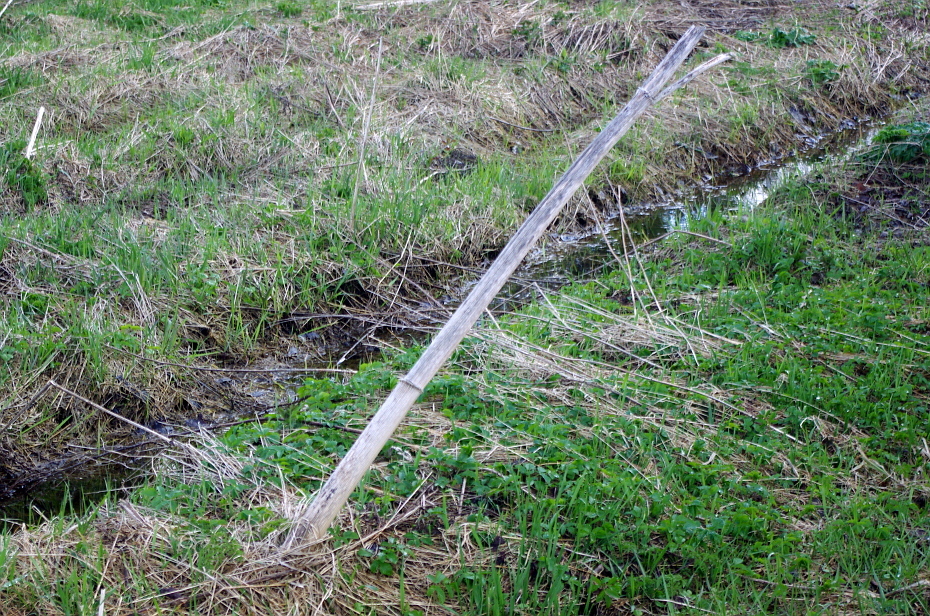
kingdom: Plantae
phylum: Tracheophyta
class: Magnoliopsida
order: Apiales
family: Apiaceae
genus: Heracleum
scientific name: Heracleum sosnowskyi
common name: Sosnowsky's hogweed
